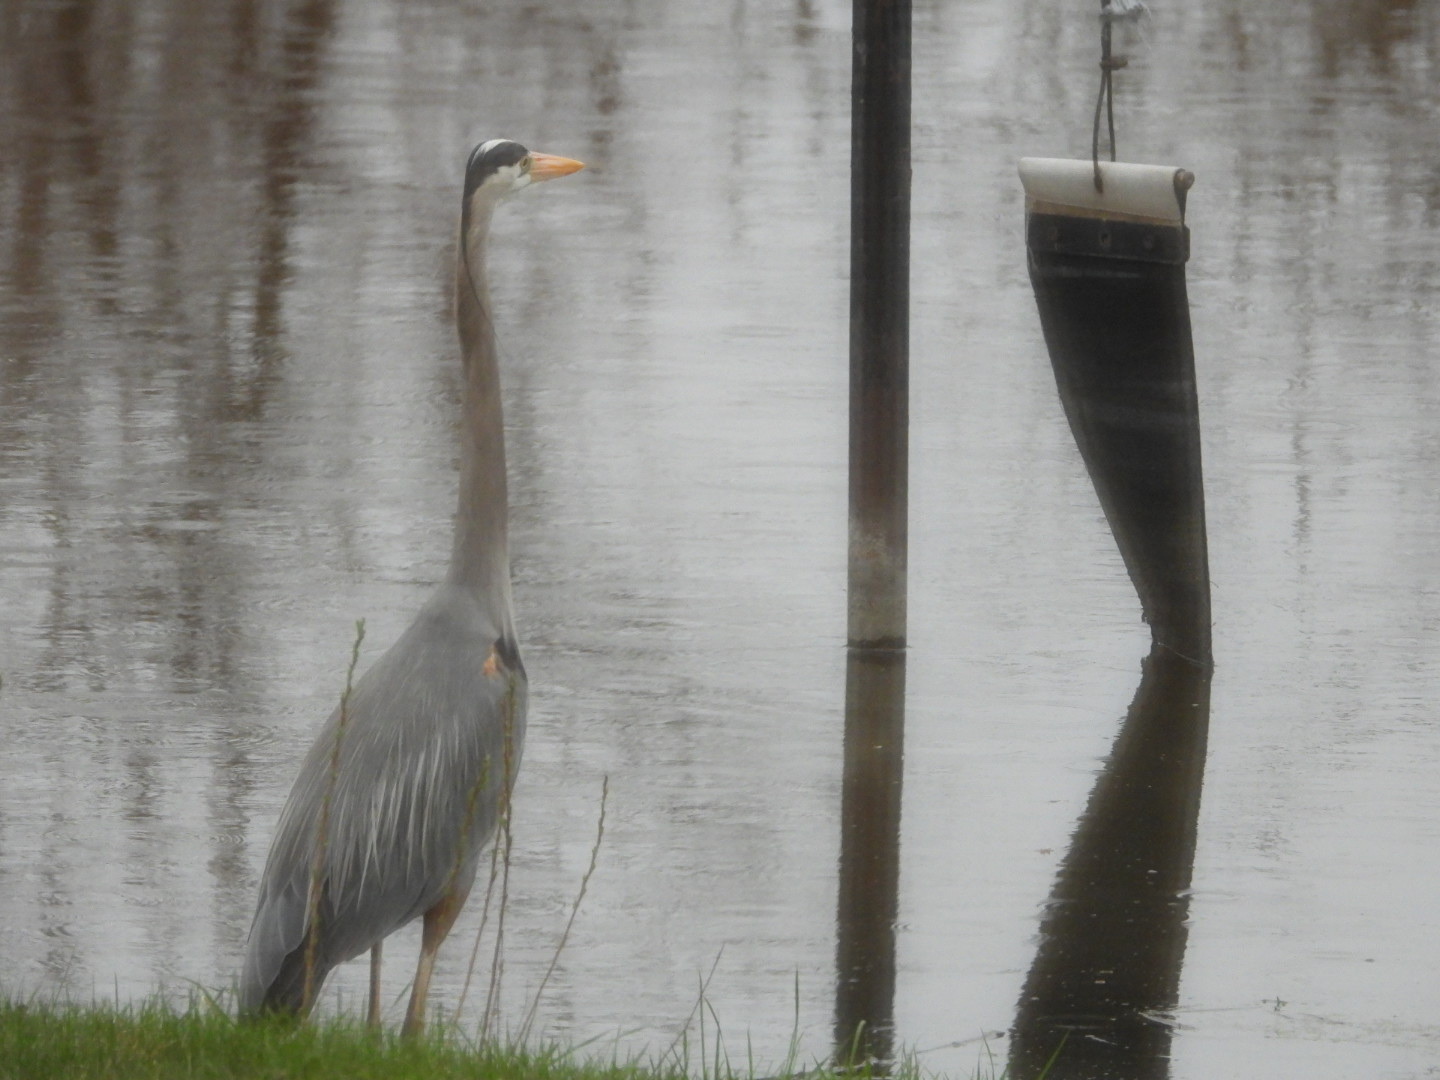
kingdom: Animalia
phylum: Chordata
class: Aves
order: Pelecaniformes
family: Ardeidae
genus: Ardea
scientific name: Ardea herodias
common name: Great blue heron
